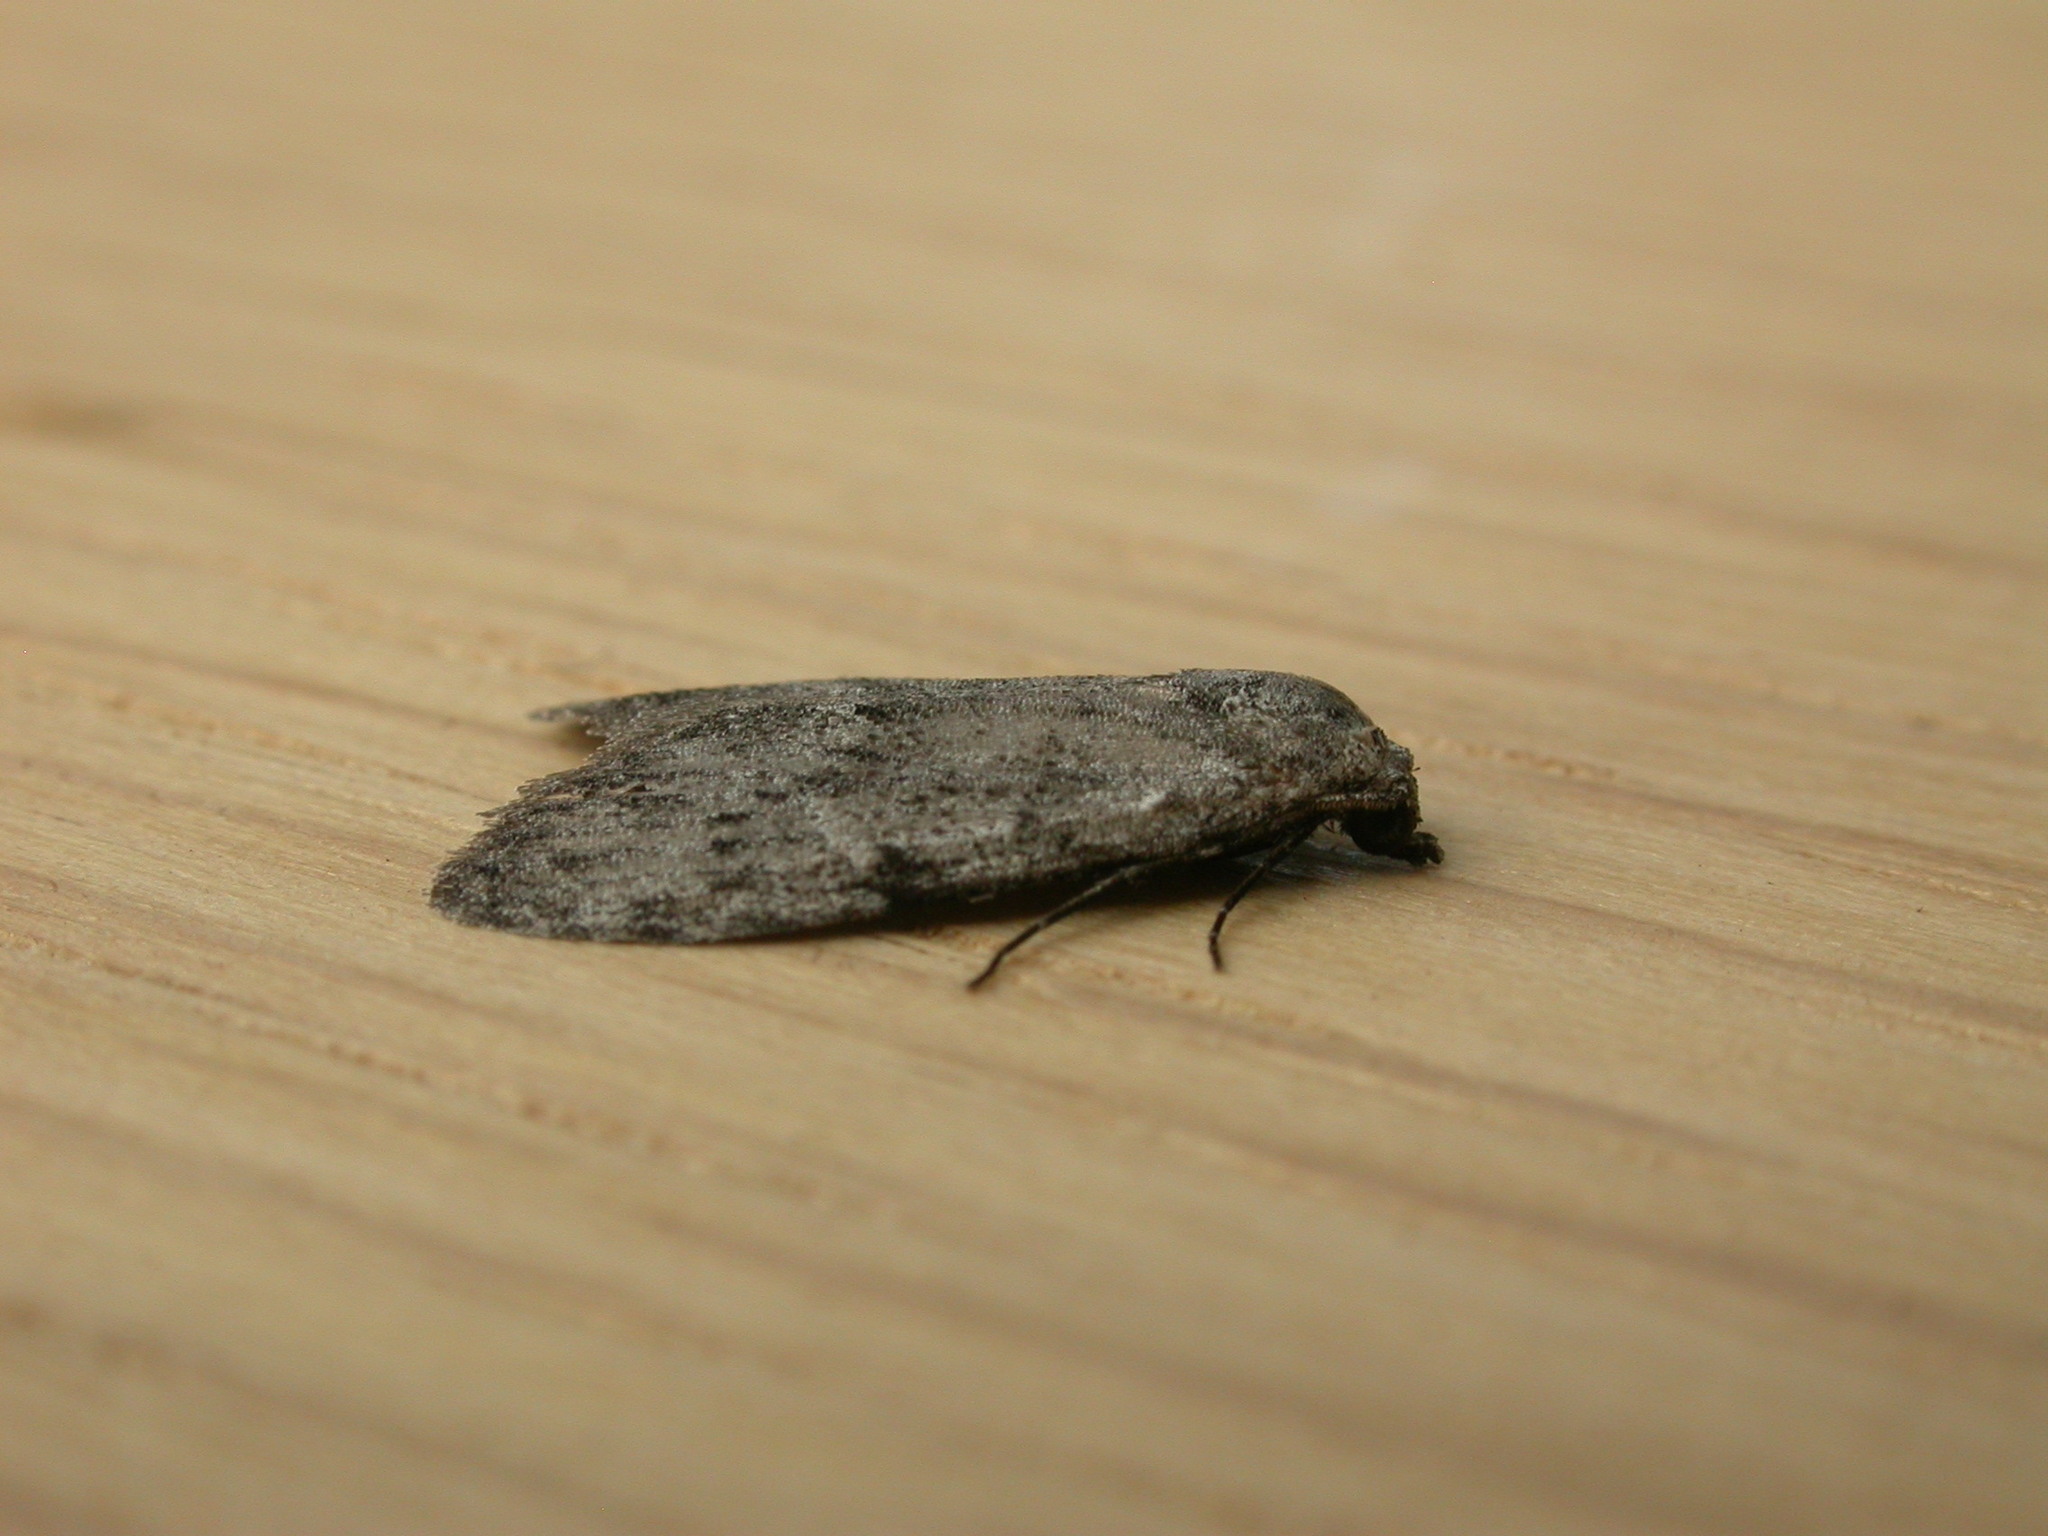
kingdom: Animalia
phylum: Arthropoda
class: Insecta
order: Lepidoptera
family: Nolidae
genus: Nola
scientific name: Nola pleurosema
